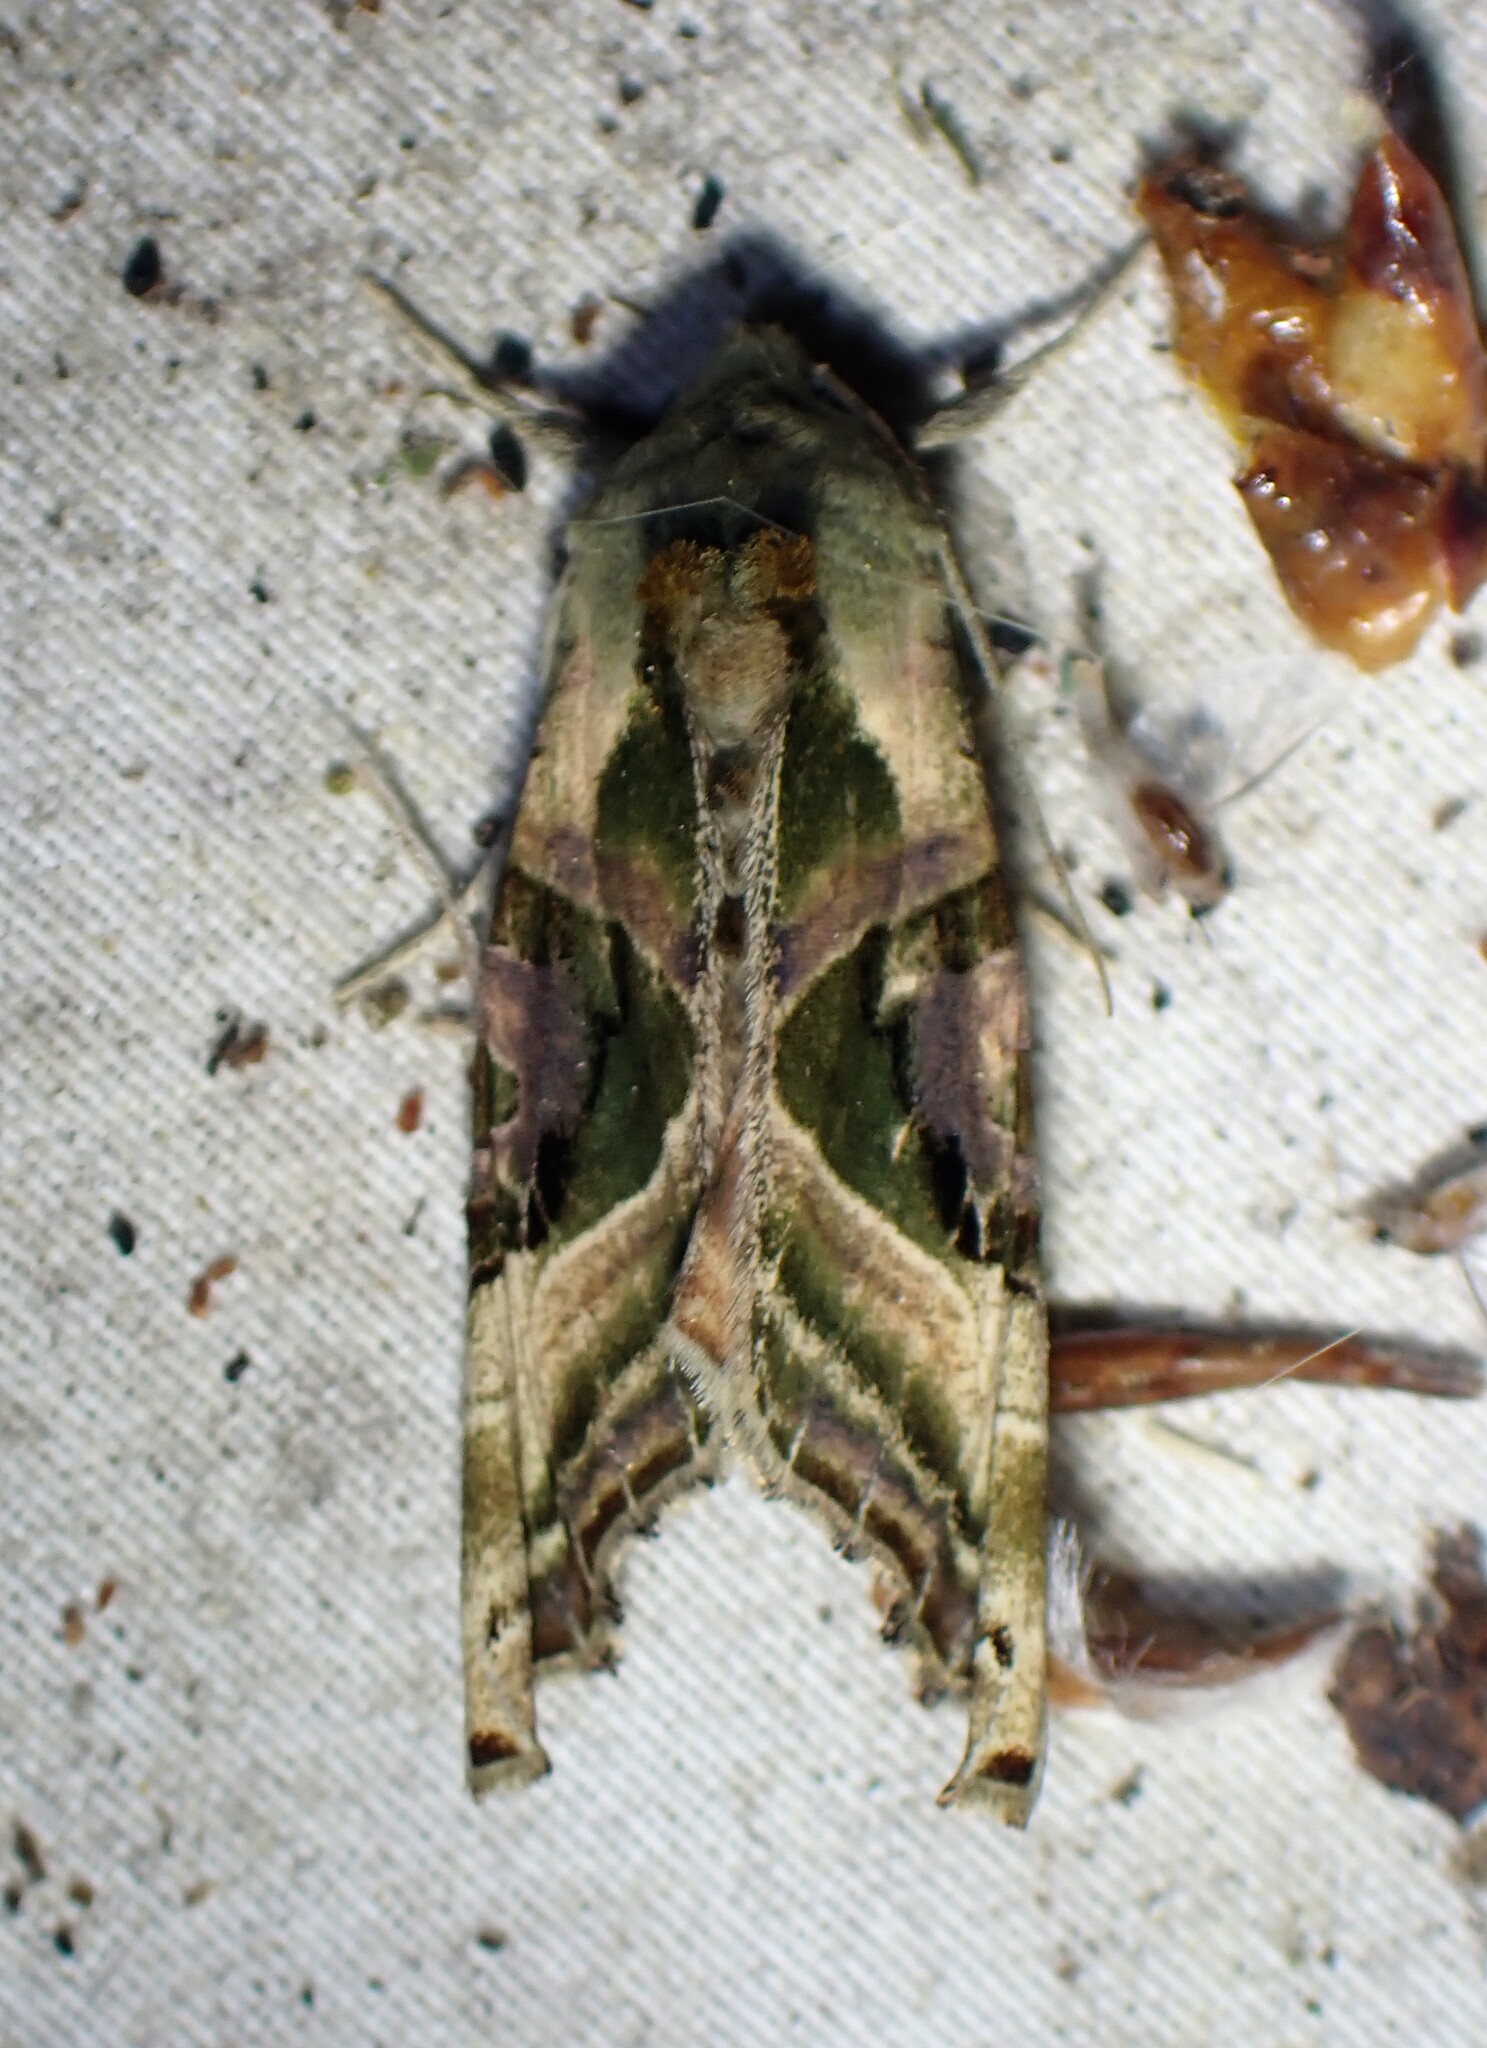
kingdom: Animalia
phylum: Arthropoda
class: Insecta
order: Lepidoptera
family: Noctuidae
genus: Phlogophora
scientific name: Phlogophora iris
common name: Olive angle shades
